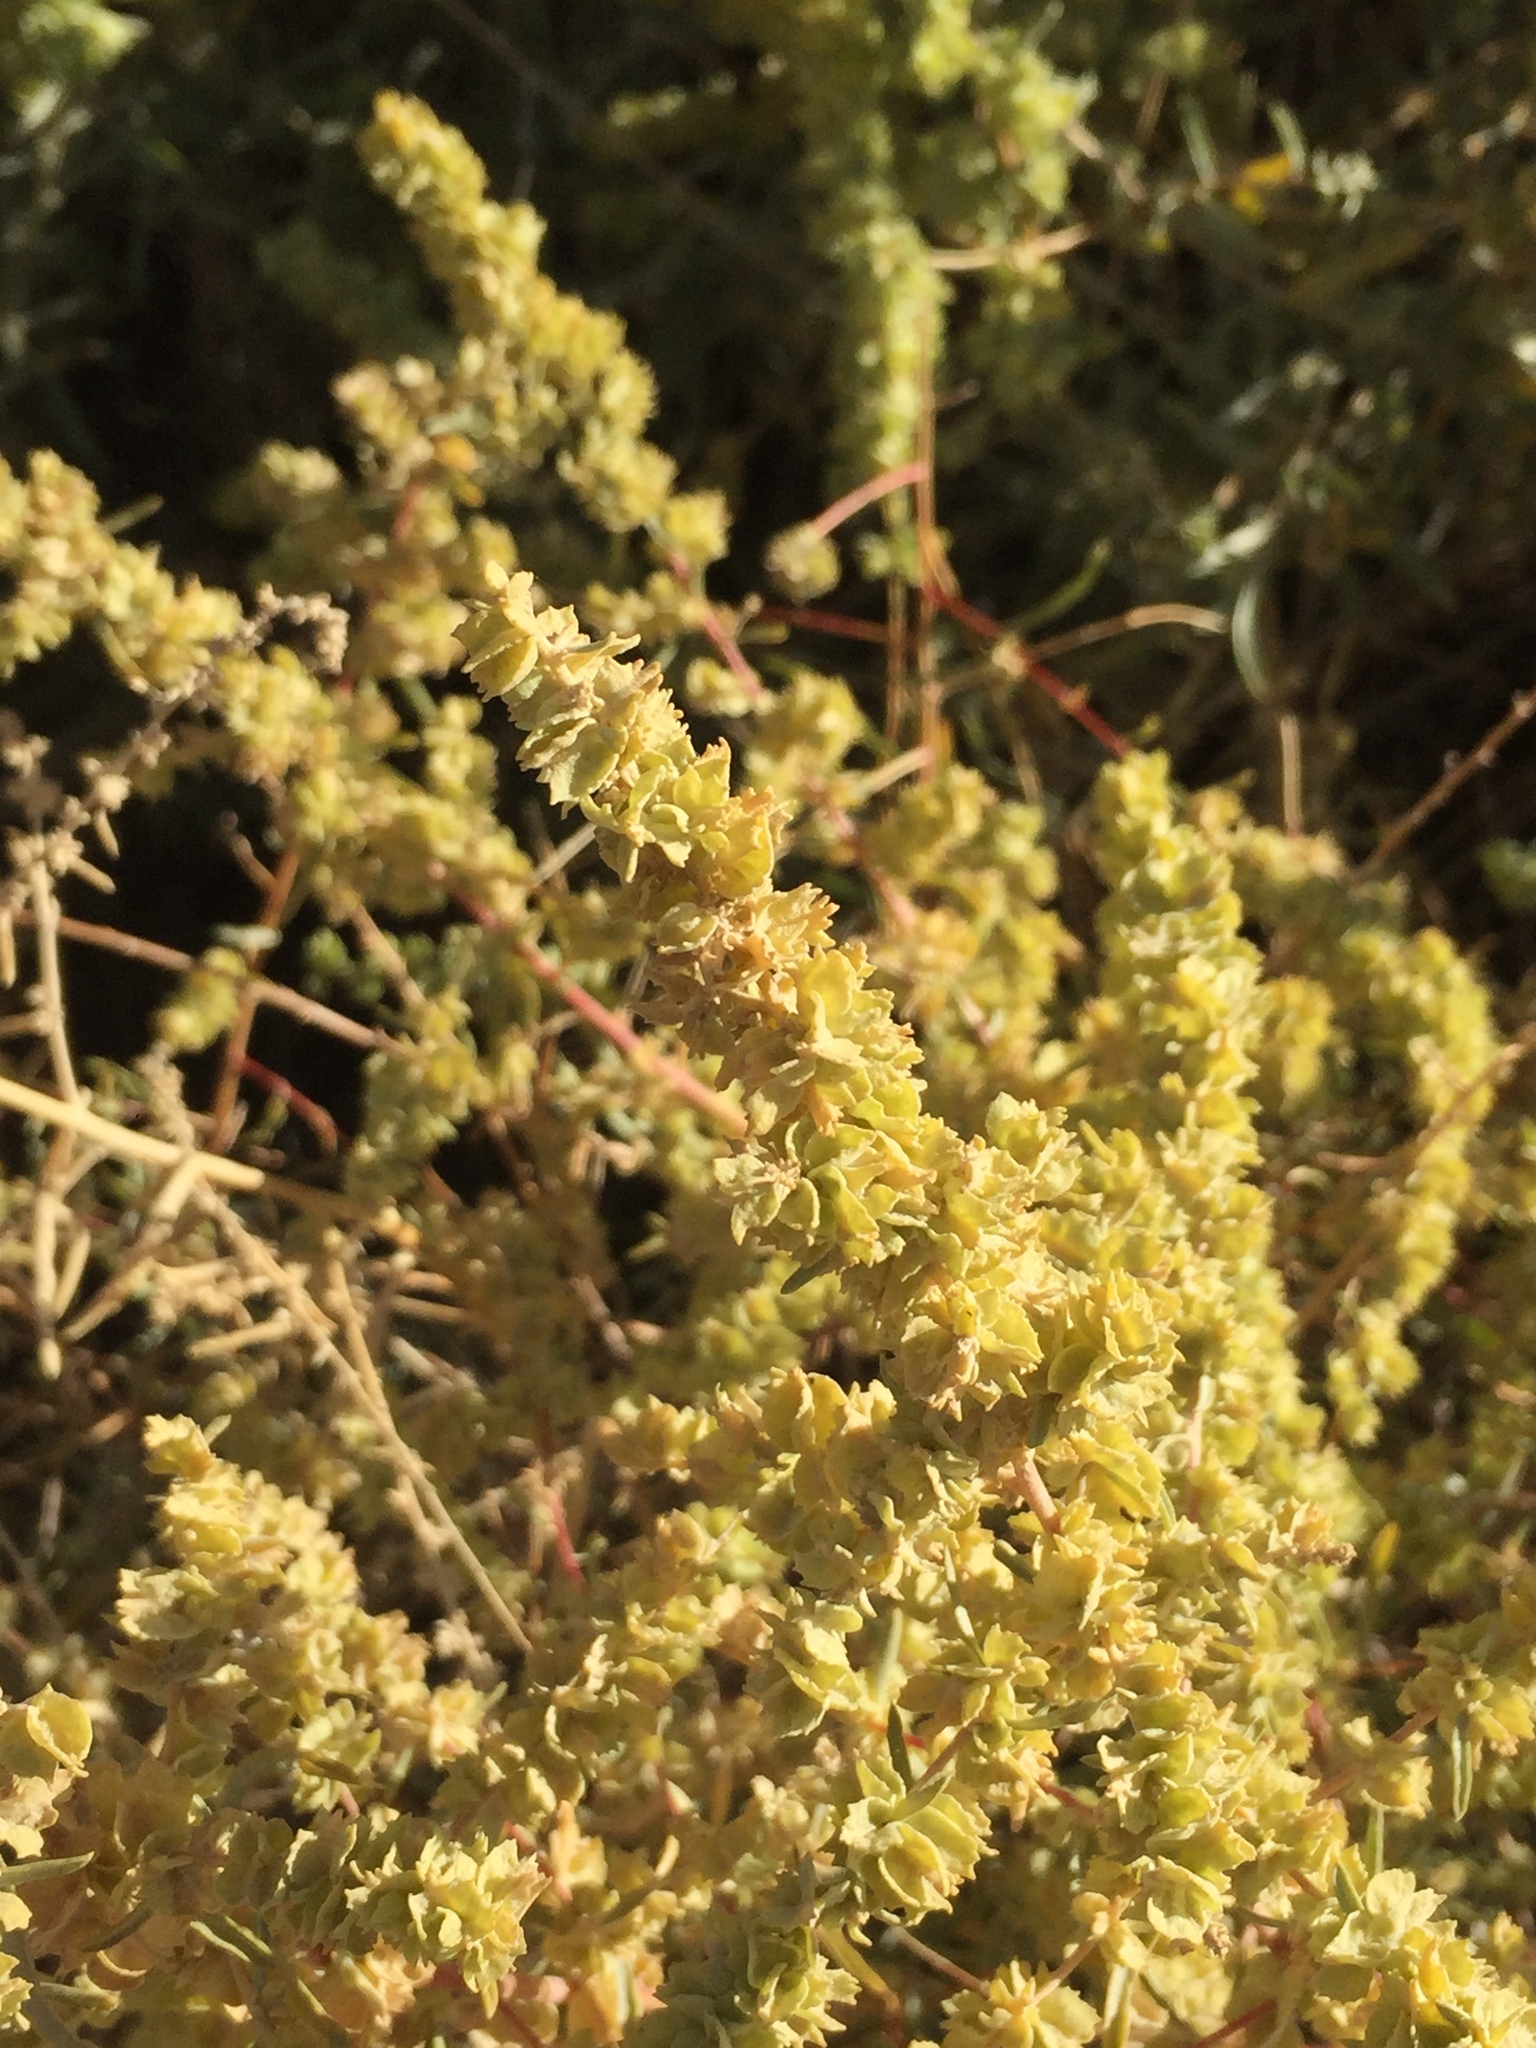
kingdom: Plantae
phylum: Tracheophyta
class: Magnoliopsida
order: Caryophyllales
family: Amaranthaceae
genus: Atriplex
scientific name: Atriplex canescens
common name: Four-wing saltbush
